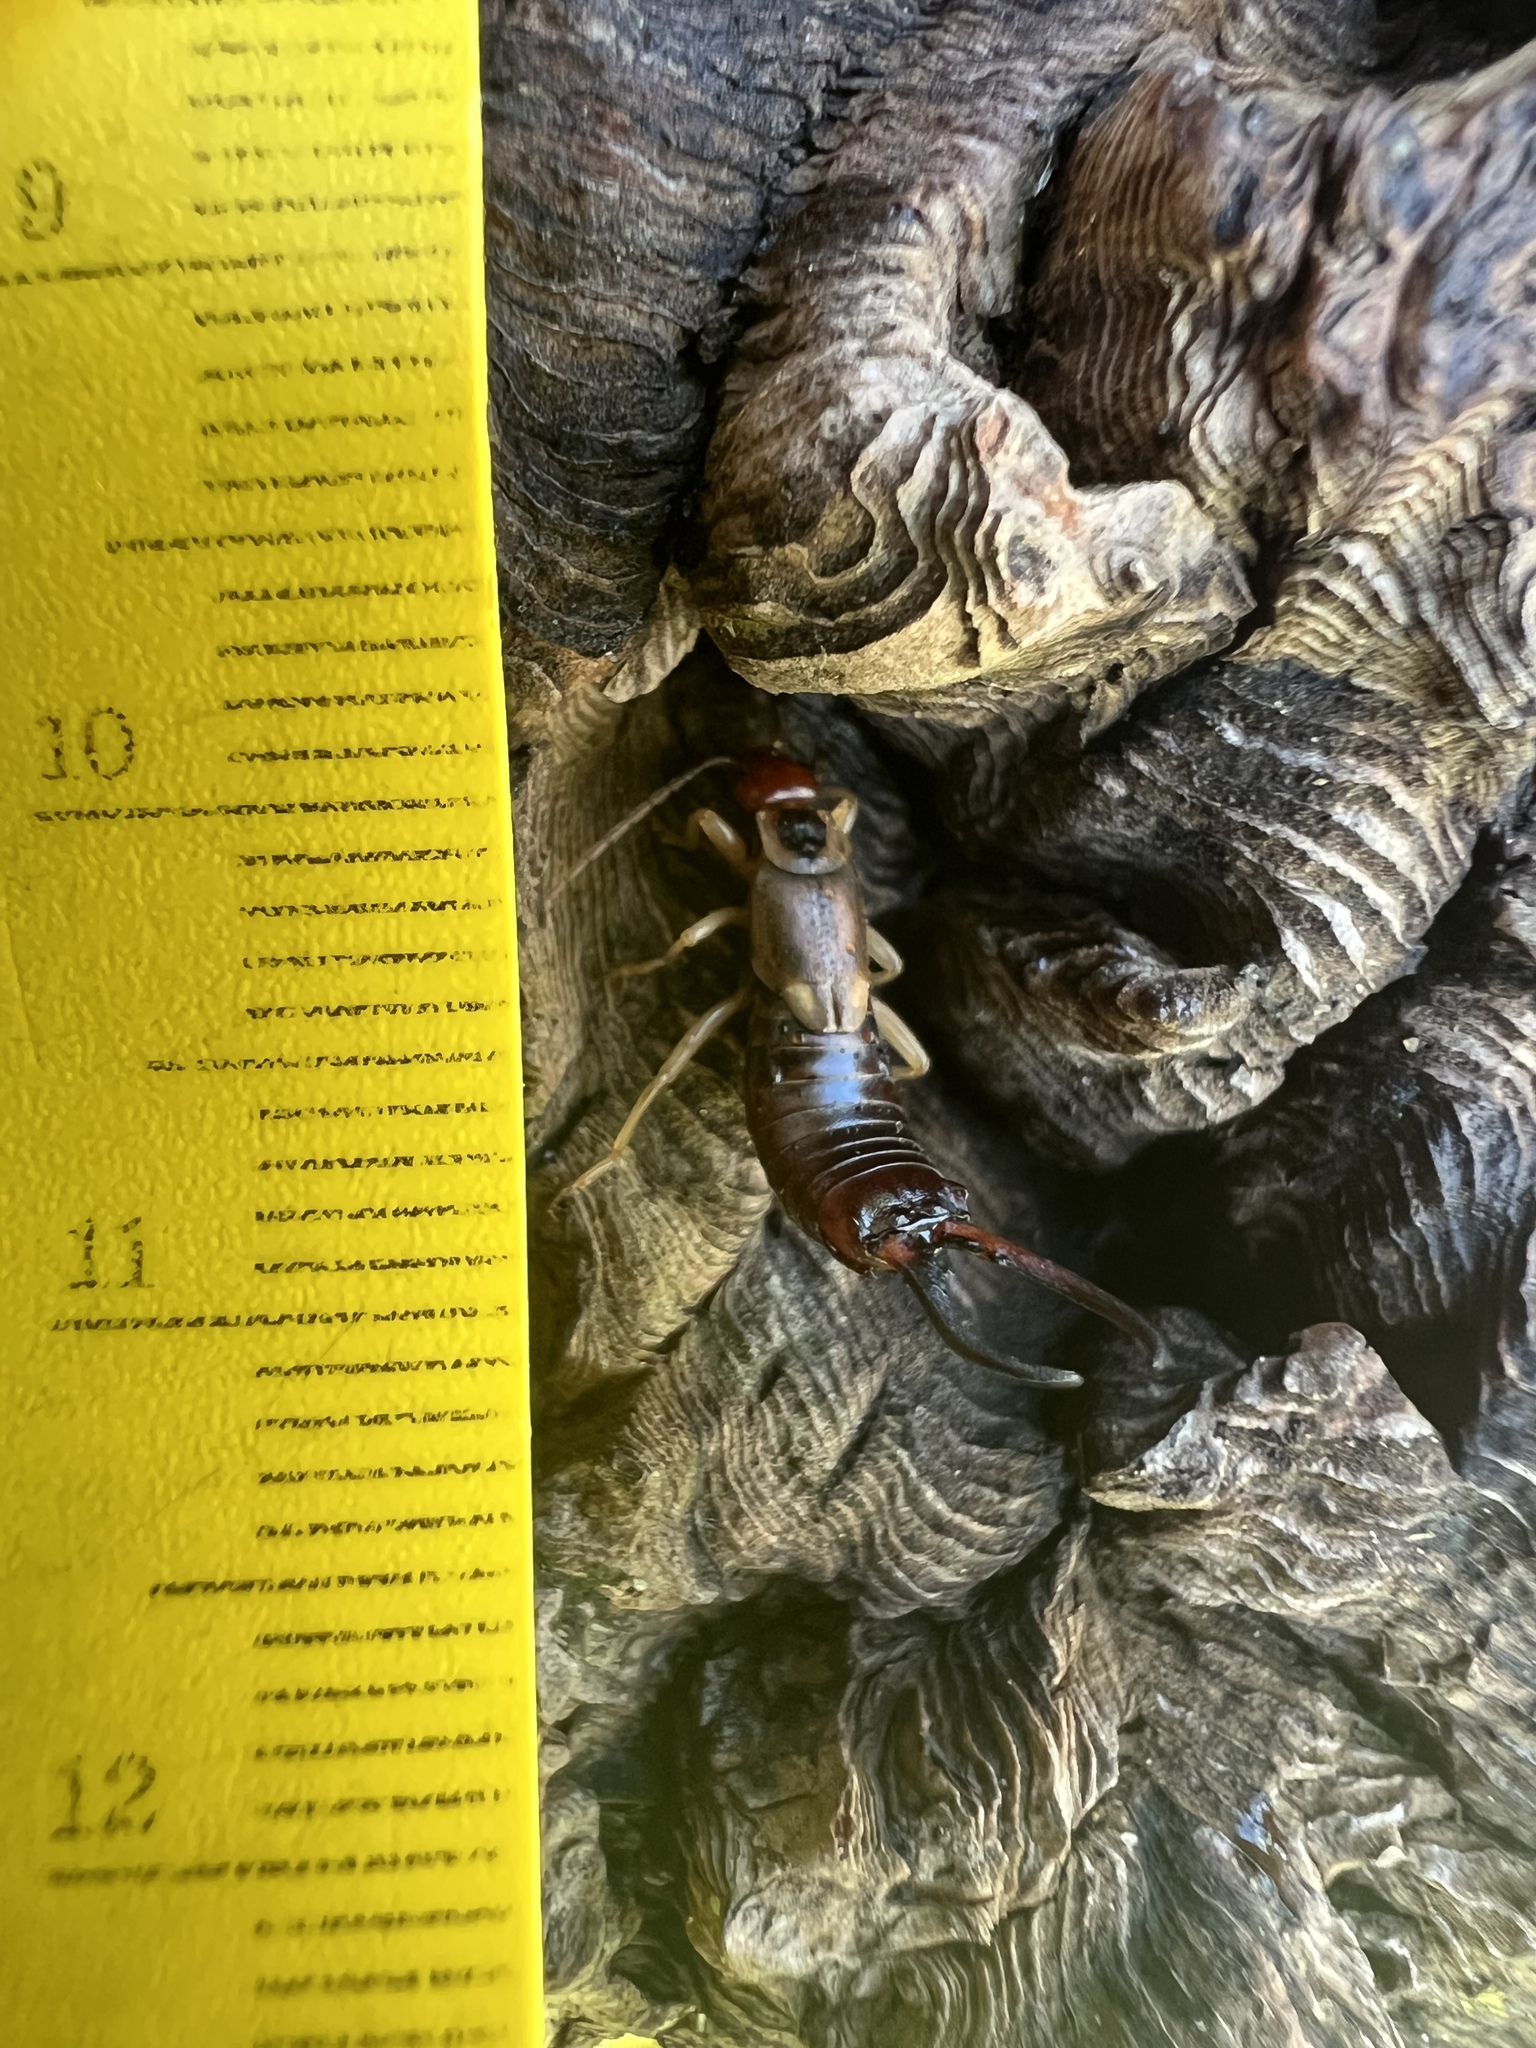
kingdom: Animalia
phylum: Arthropoda
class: Insecta
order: Dermaptera
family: Forficulidae
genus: Forficula
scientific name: Forficula dentata
